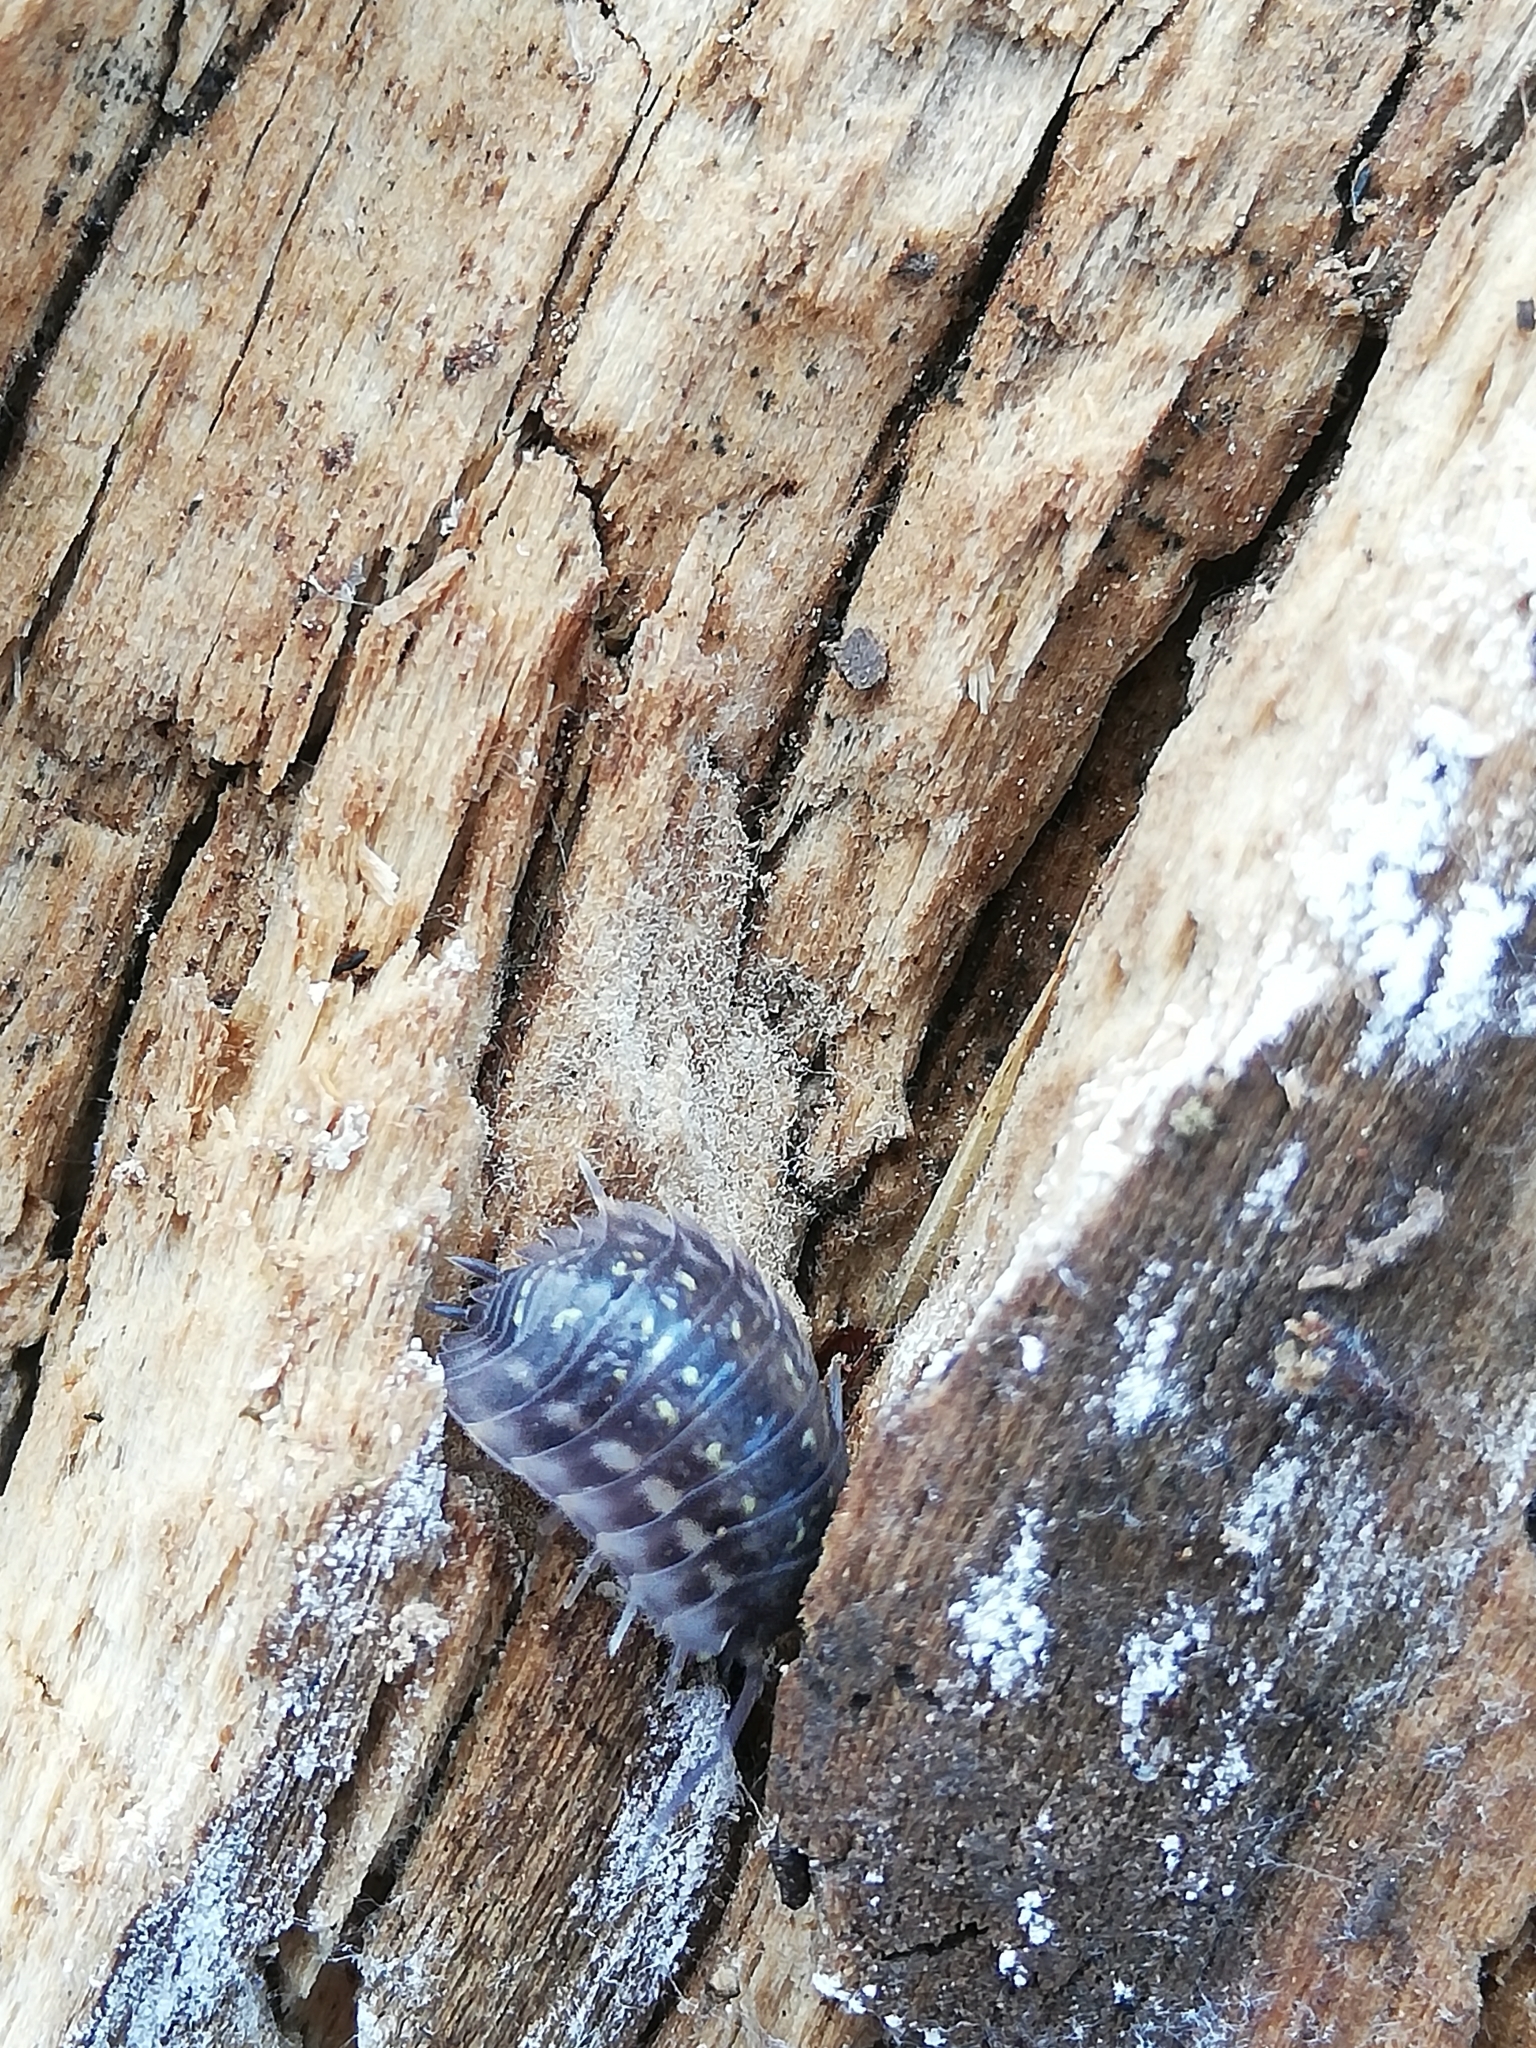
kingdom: Animalia
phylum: Arthropoda
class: Malacostraca
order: Isopoda
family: Oniscidae
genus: Oniscus
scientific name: Oniscus asellus
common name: Common shiny woodlouse
